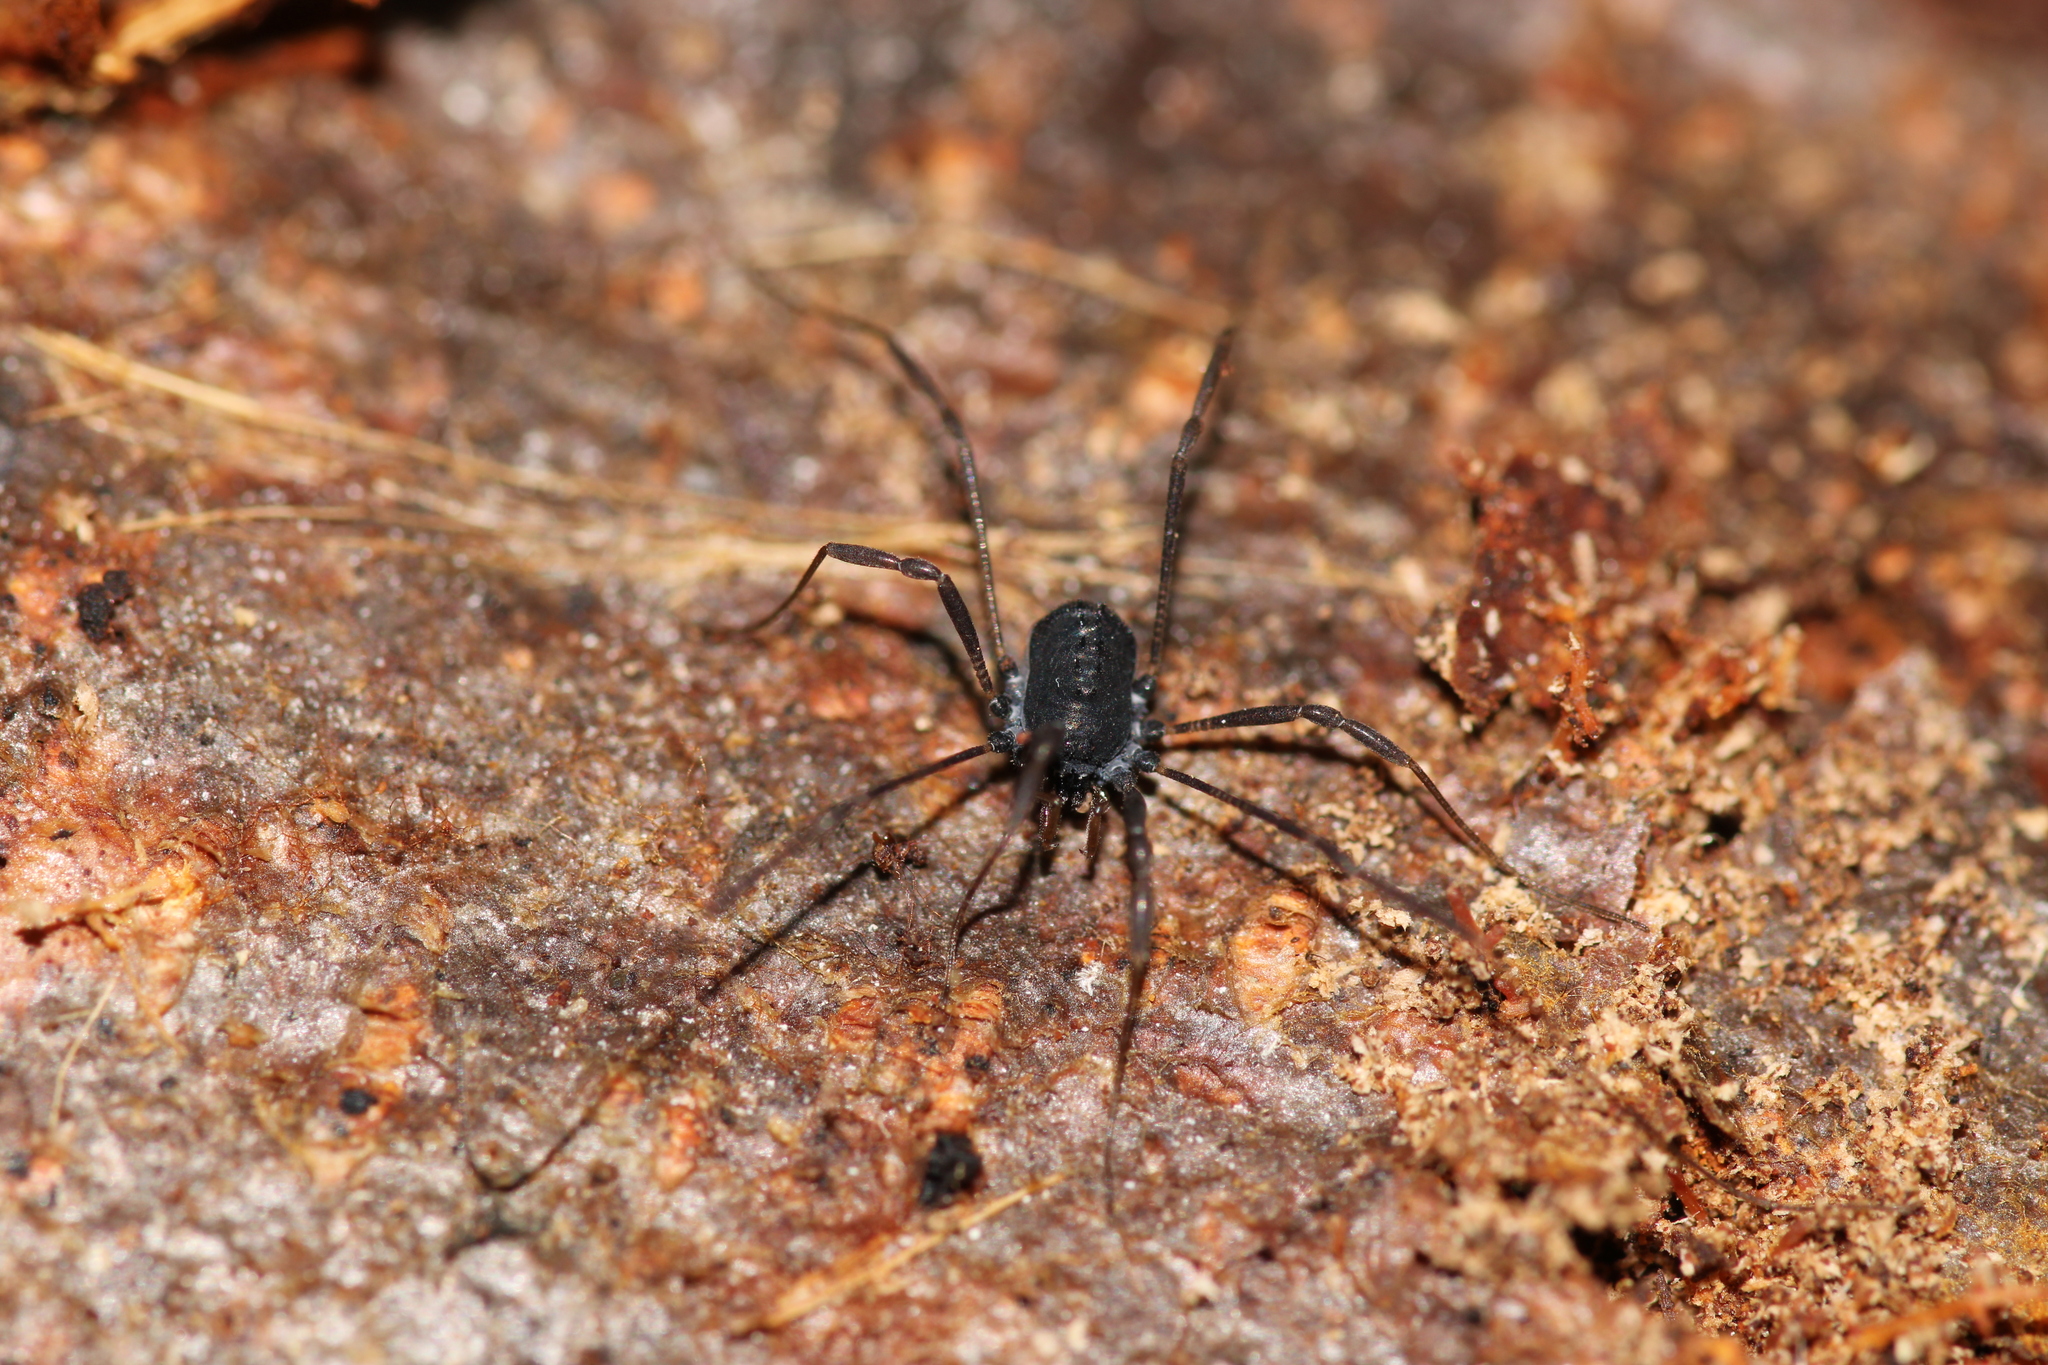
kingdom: Animalia
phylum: Arthropoda
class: Arachnida
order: Opiliones
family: Nemastomatidae
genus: Histricostoma
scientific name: Histricostoma dentipalpe
